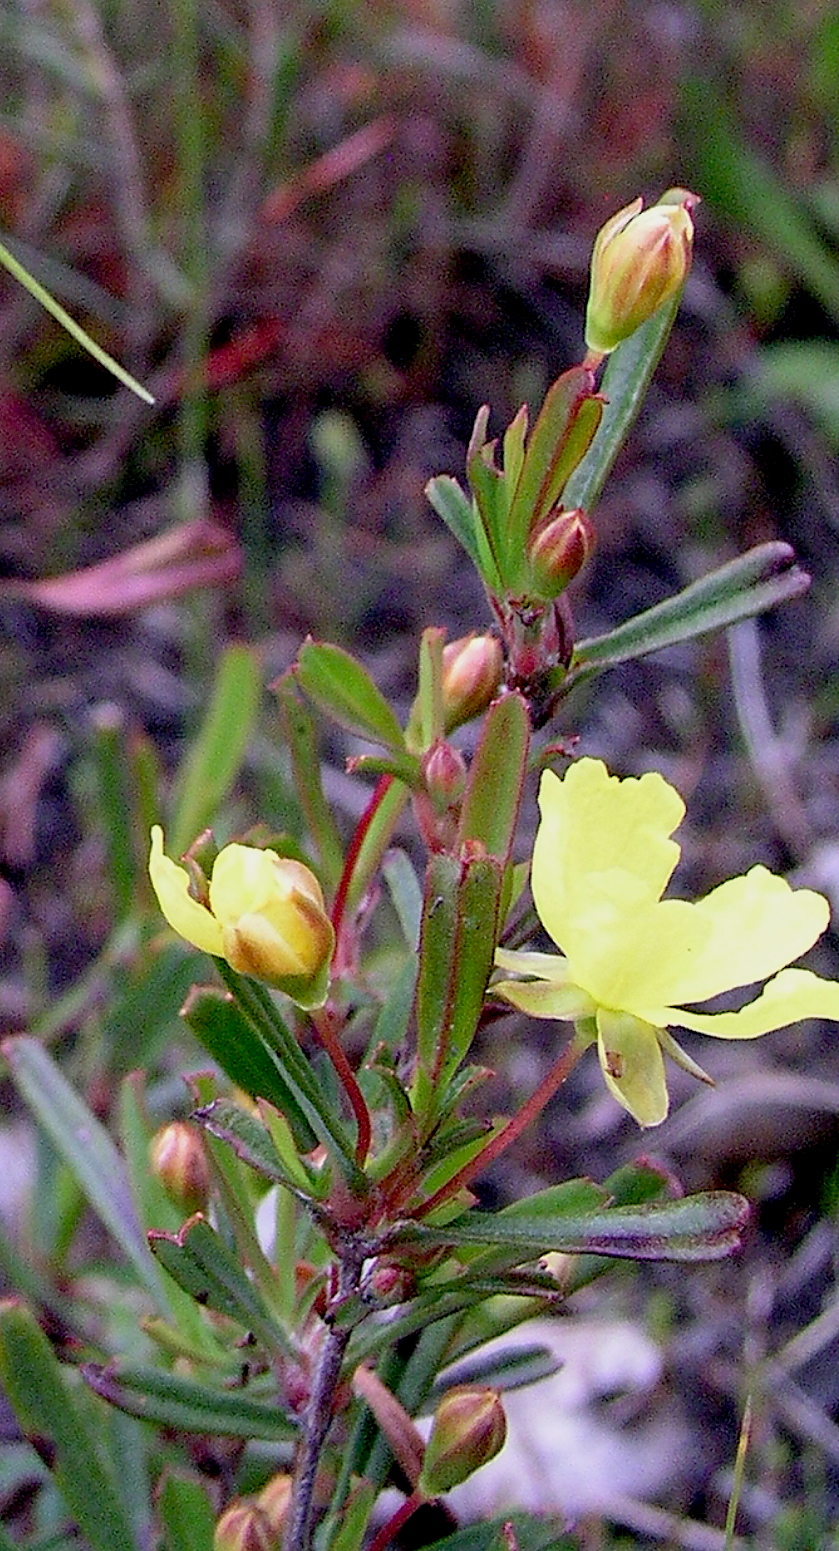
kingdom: Plantae
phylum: Tracheophyta
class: Magnoliopsida
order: Dilleniales
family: Dilleniaceae
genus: Hibbertia
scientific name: Hibbertia racemosa
